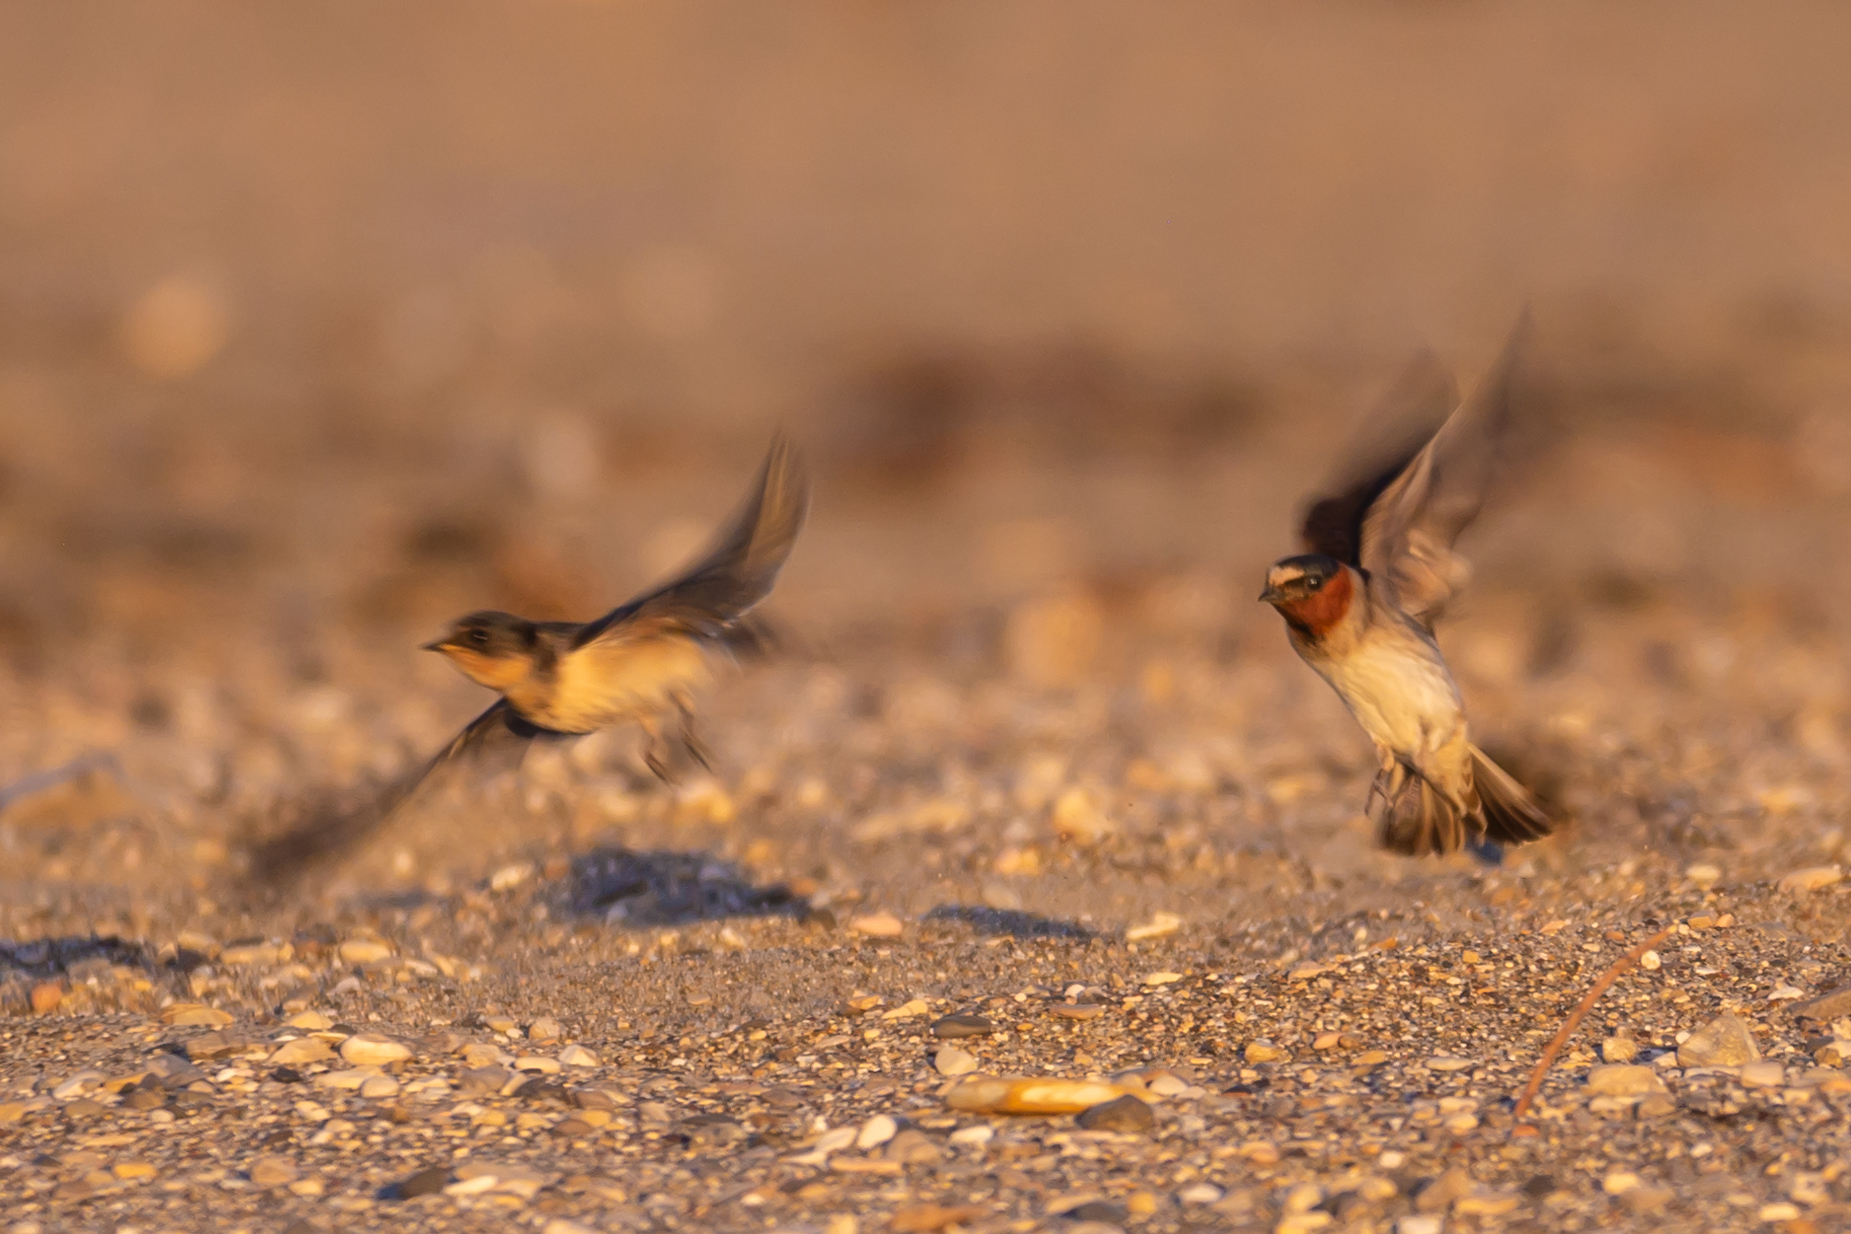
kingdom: Animalia
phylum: Chordata
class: Aves
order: Passeriformes
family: Hirundinidae
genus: Petrochelidon
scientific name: Petrochelidon pyrrhonota
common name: American cliff swallow
